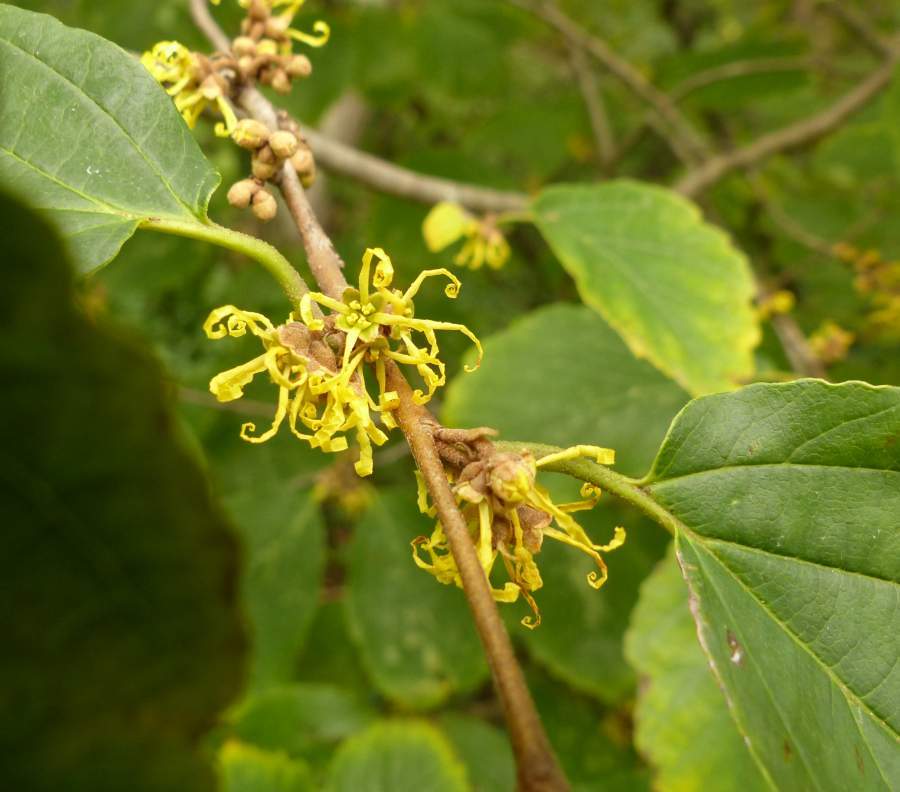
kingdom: Plantae
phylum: Tracheophyta
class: Magnoliopsida
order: Saxifragales
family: Hamamelidaceae
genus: Hamamelis
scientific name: Hamamelis virginiana
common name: Witch-hazel
